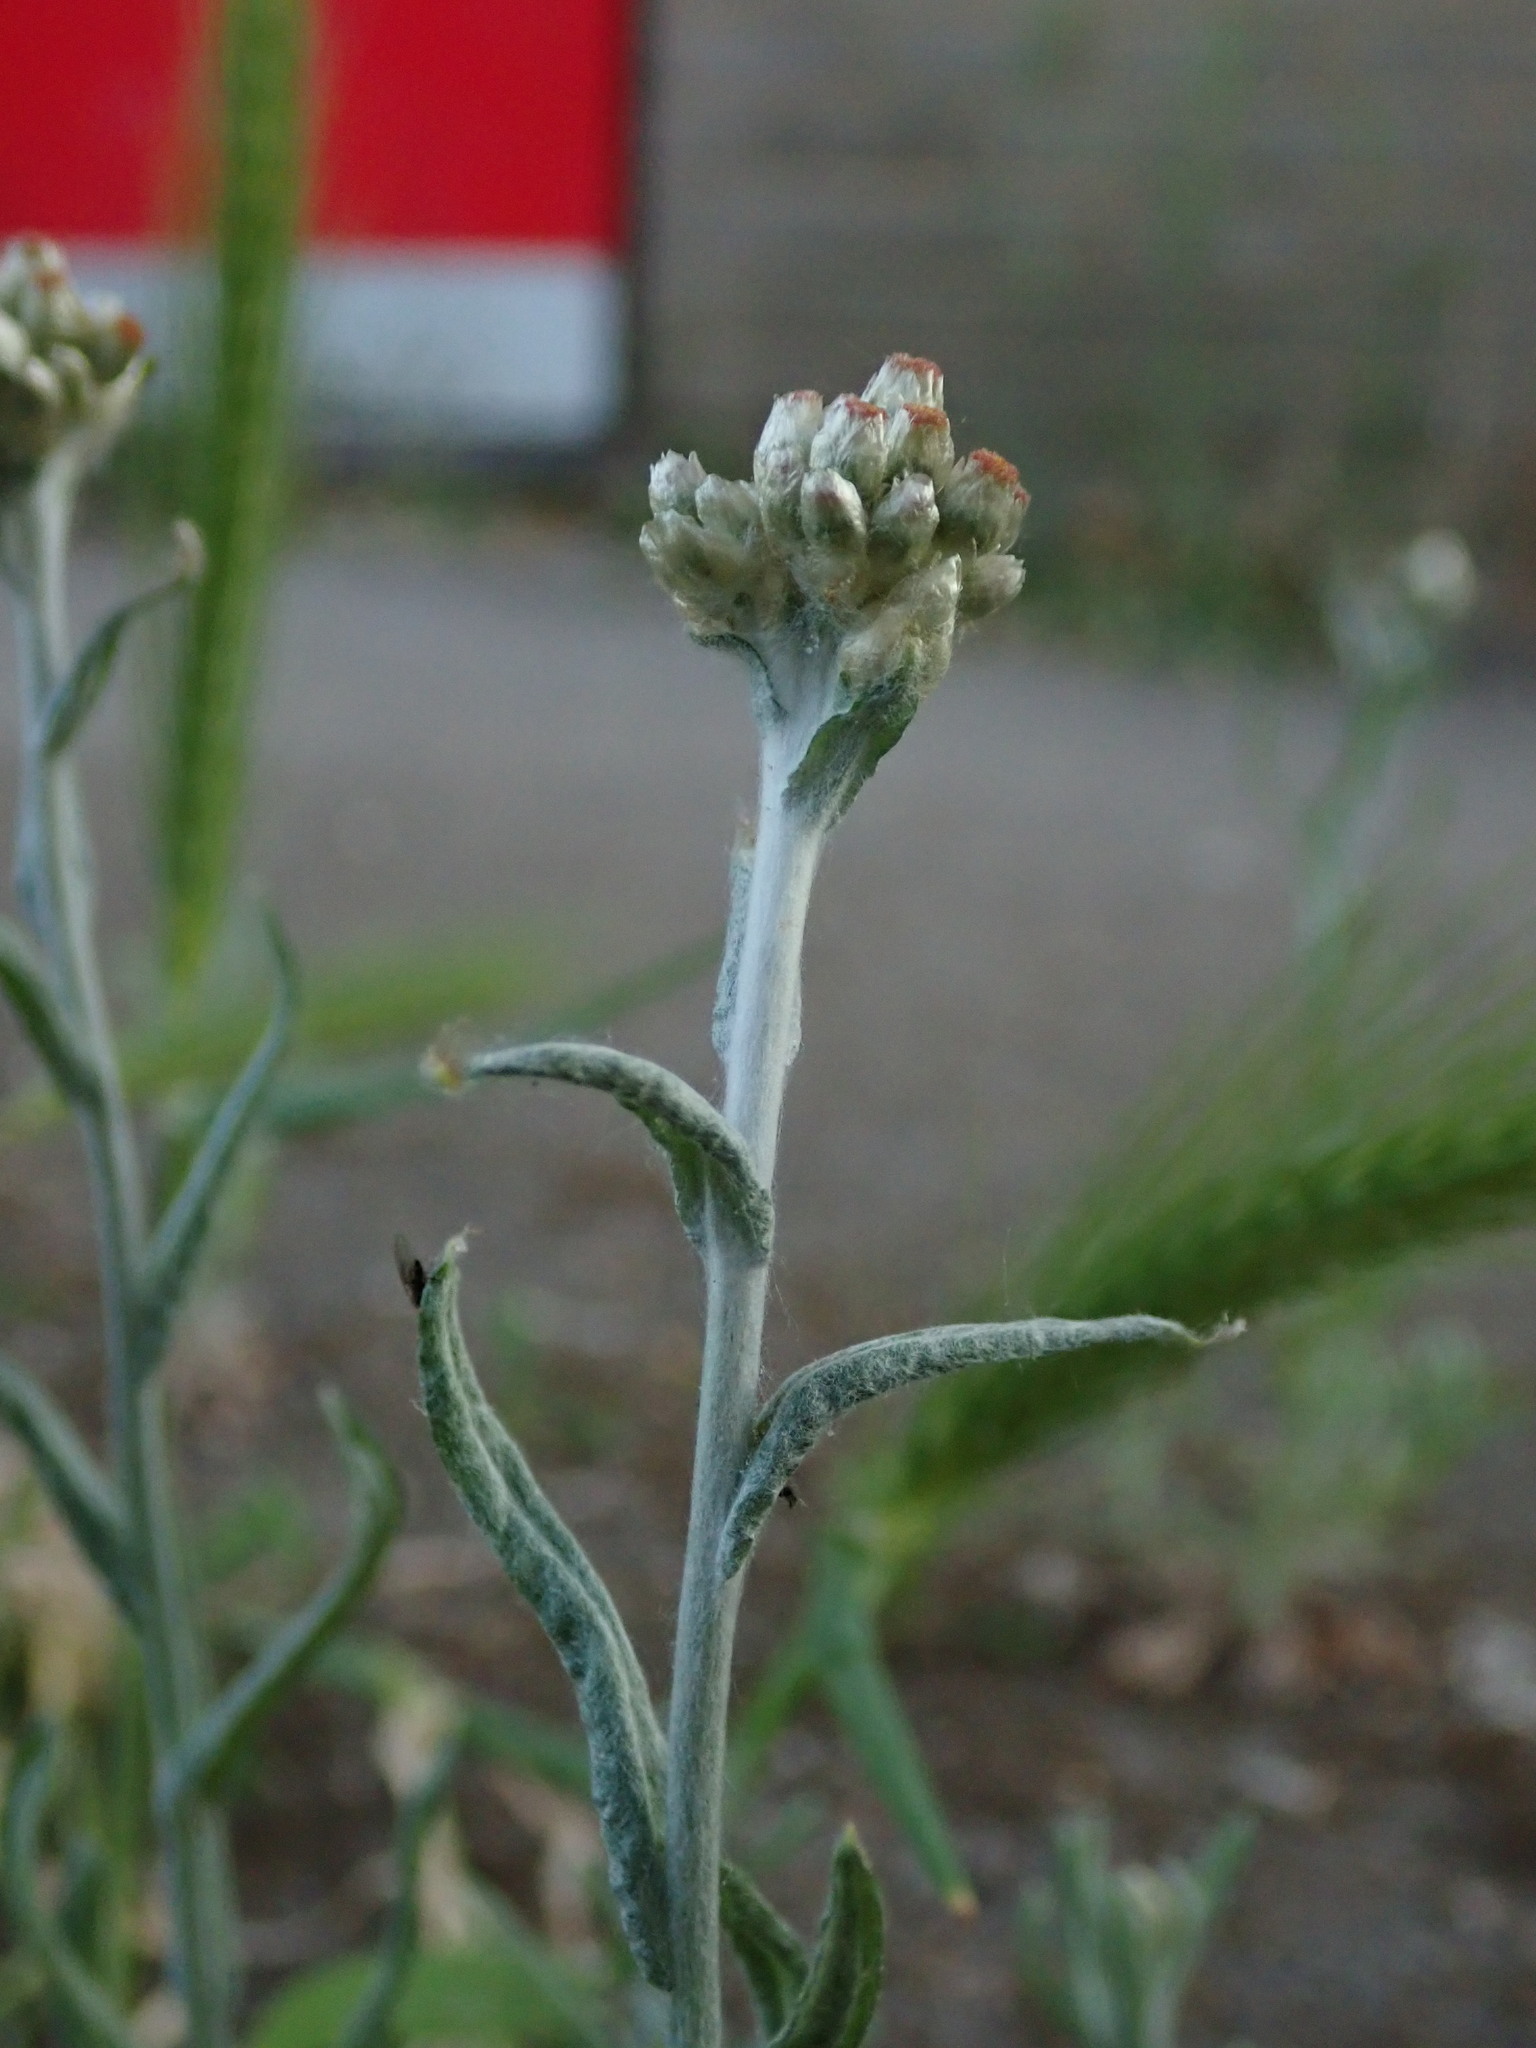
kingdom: Plantae
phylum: Tracheophyta
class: Magnoliopsida
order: Asterales
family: Asteraceae
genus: Helichrysum
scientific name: Helichrysum luteoalbum
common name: Daisy
